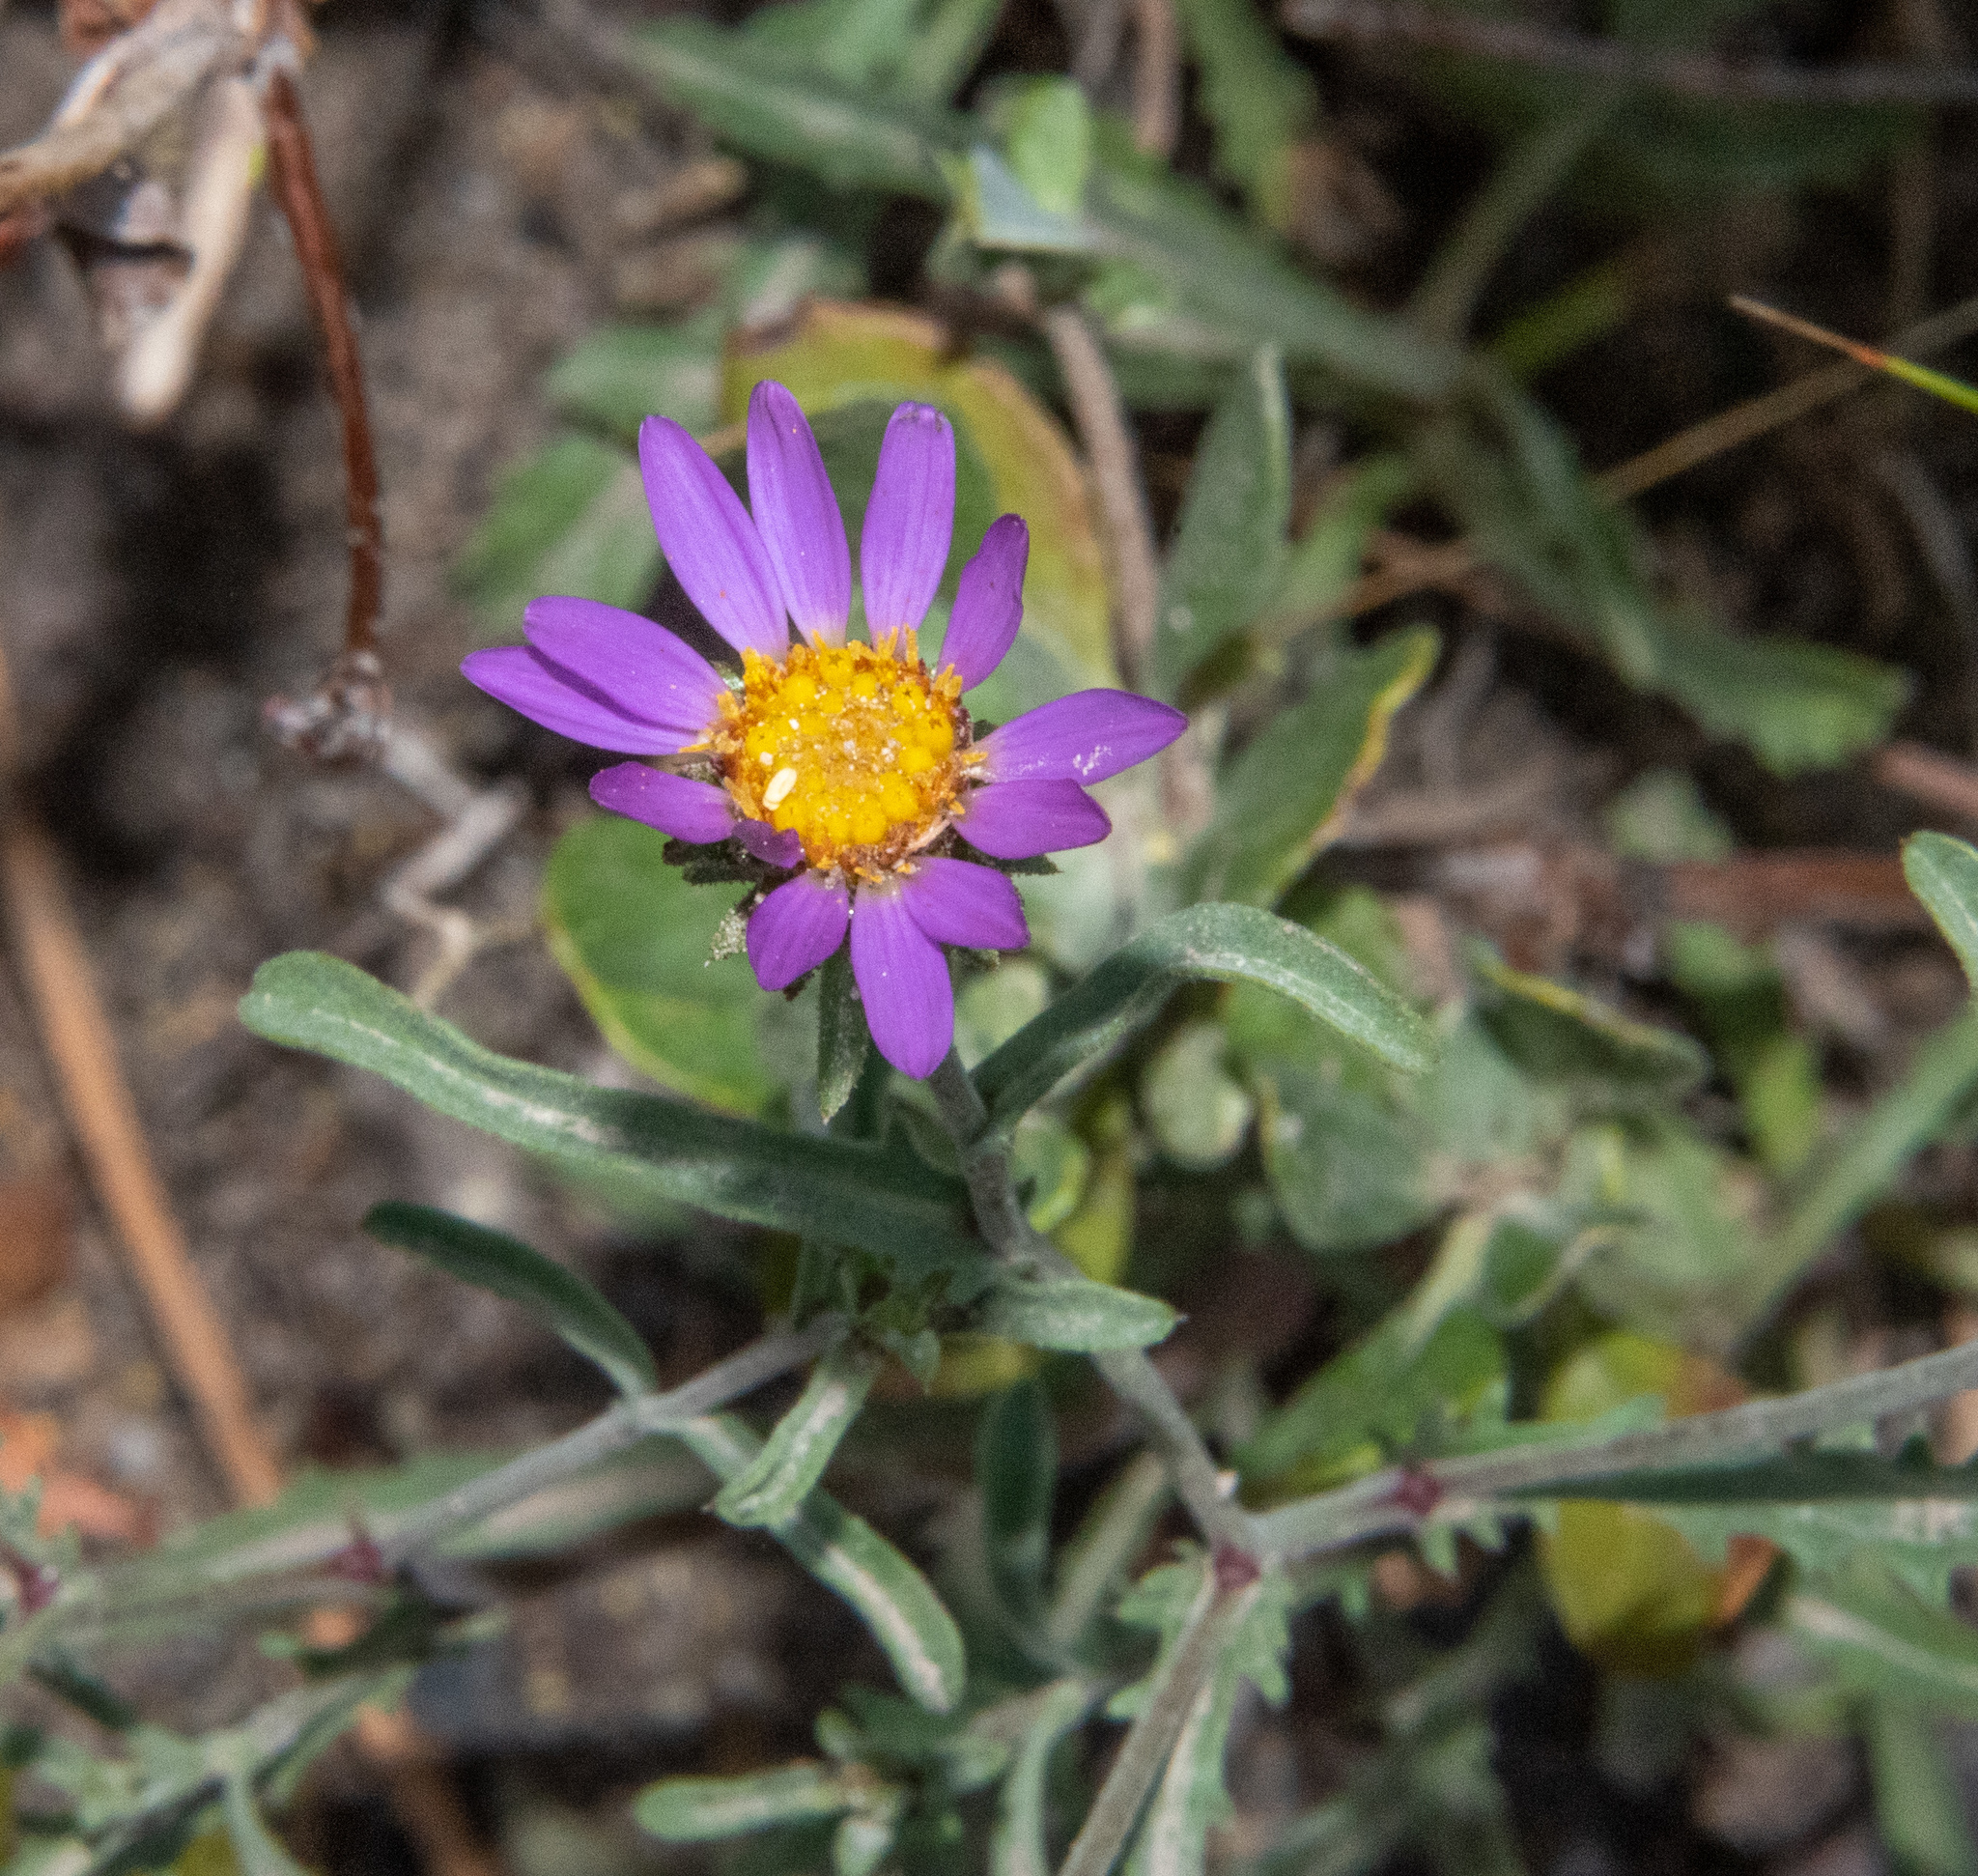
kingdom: Plantae
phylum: Tracheophyta
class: Magnoliopsida
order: Asterales
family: Asteraceae
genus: Dieteria
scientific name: Dieteria canescens
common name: Hoary-aster
